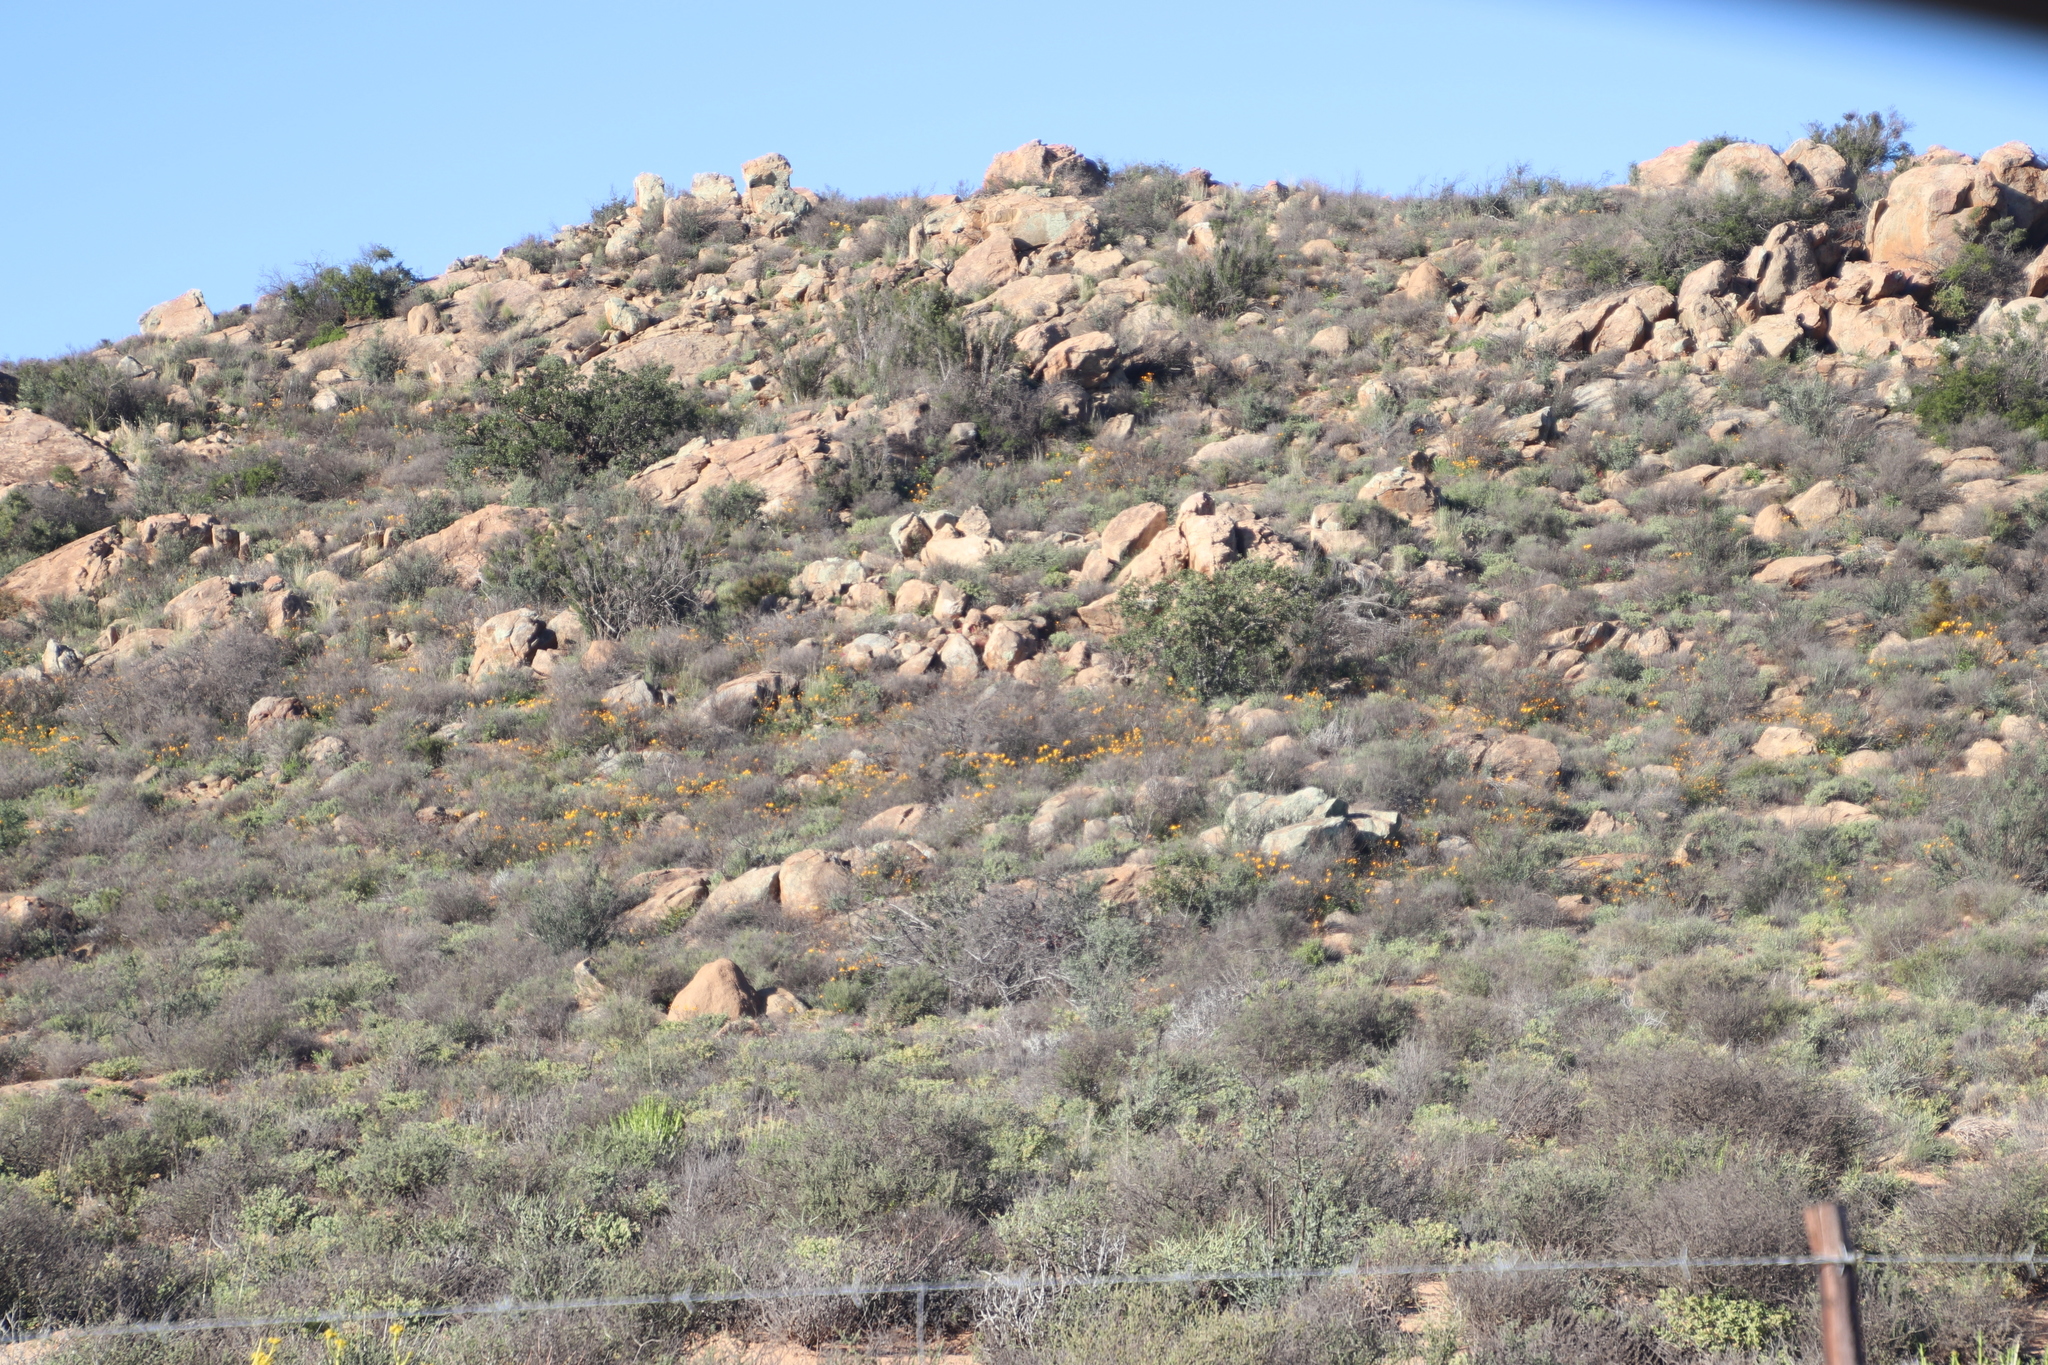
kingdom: Plantae
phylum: Tracheophyta
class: Magnoliopsida
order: Asterales
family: Asteraceae
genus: Dimorphotheca
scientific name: Dimorphotheca sinuata
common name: Glandular cape marigold
